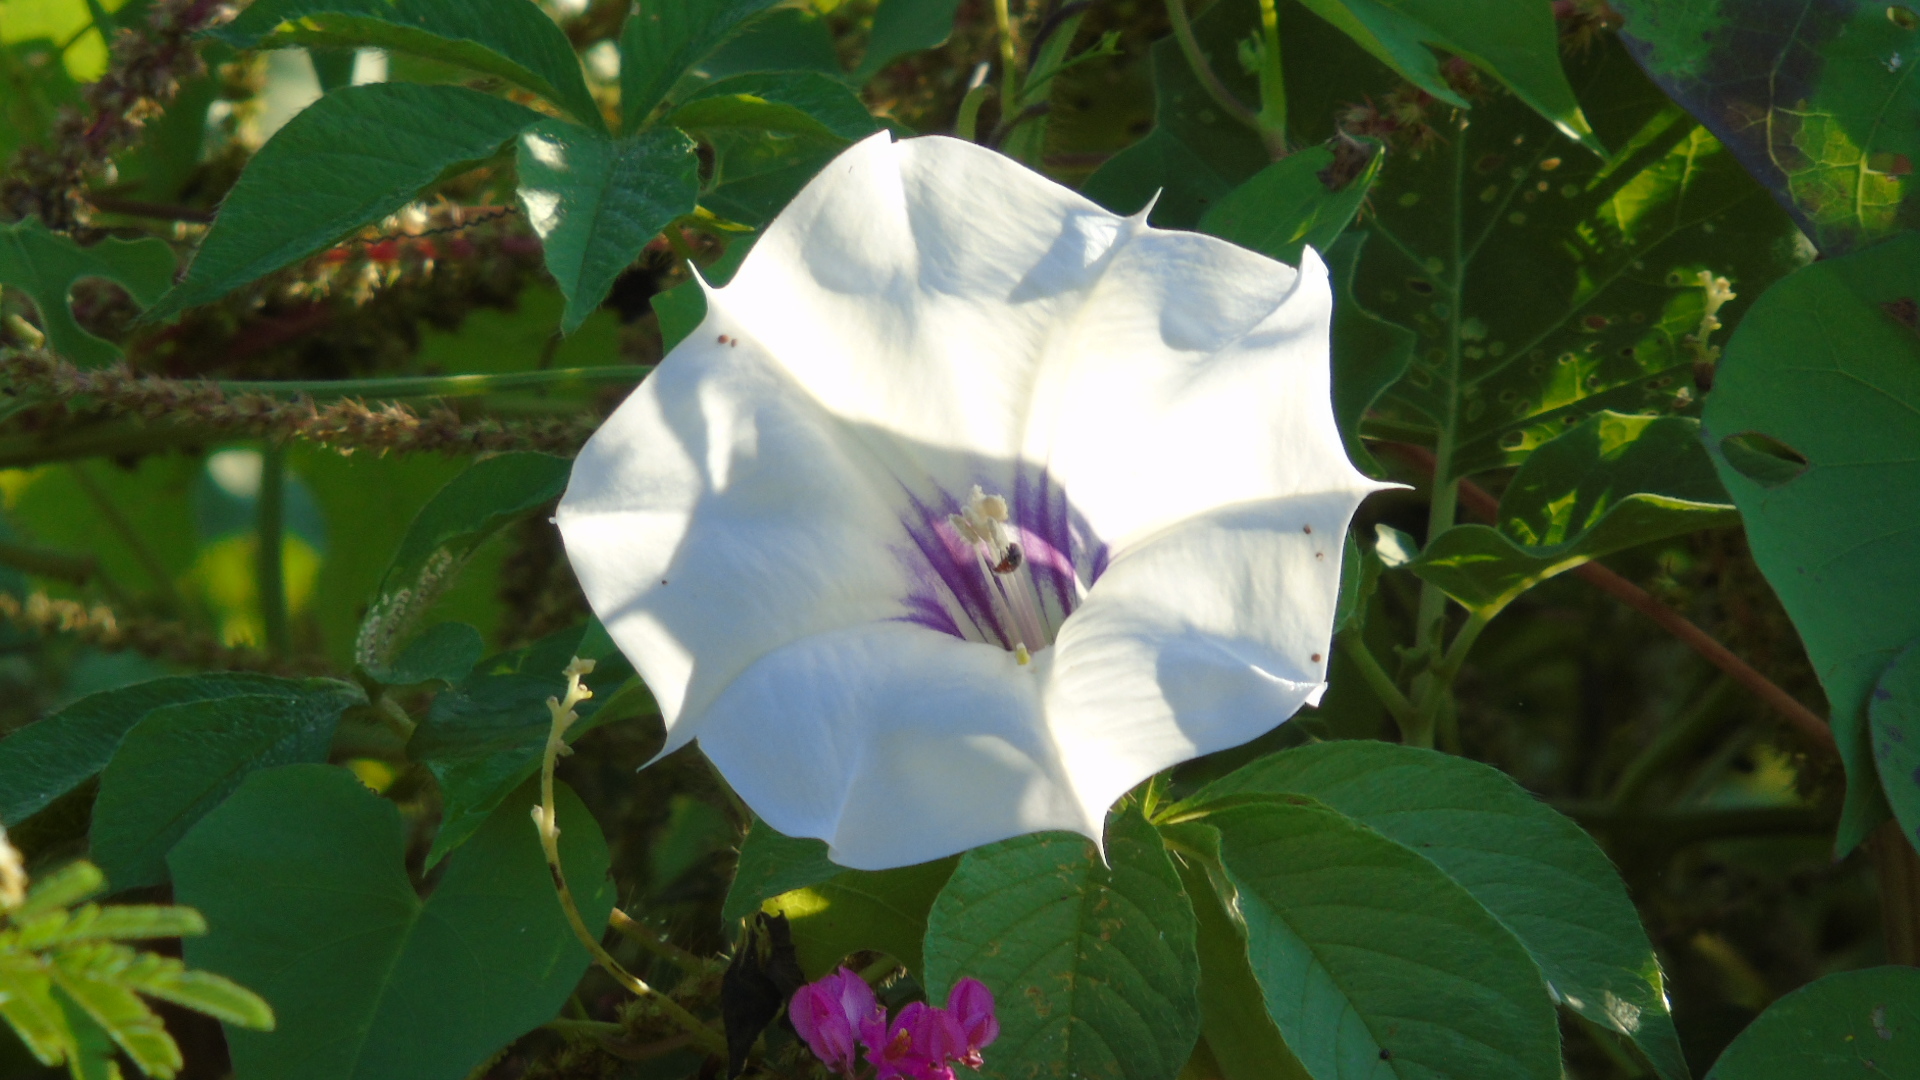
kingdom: Plantae
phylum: Tracheophyta
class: Magnoliopsida
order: Solanales
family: Solanaceae
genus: Datura
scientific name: Datura discolor
